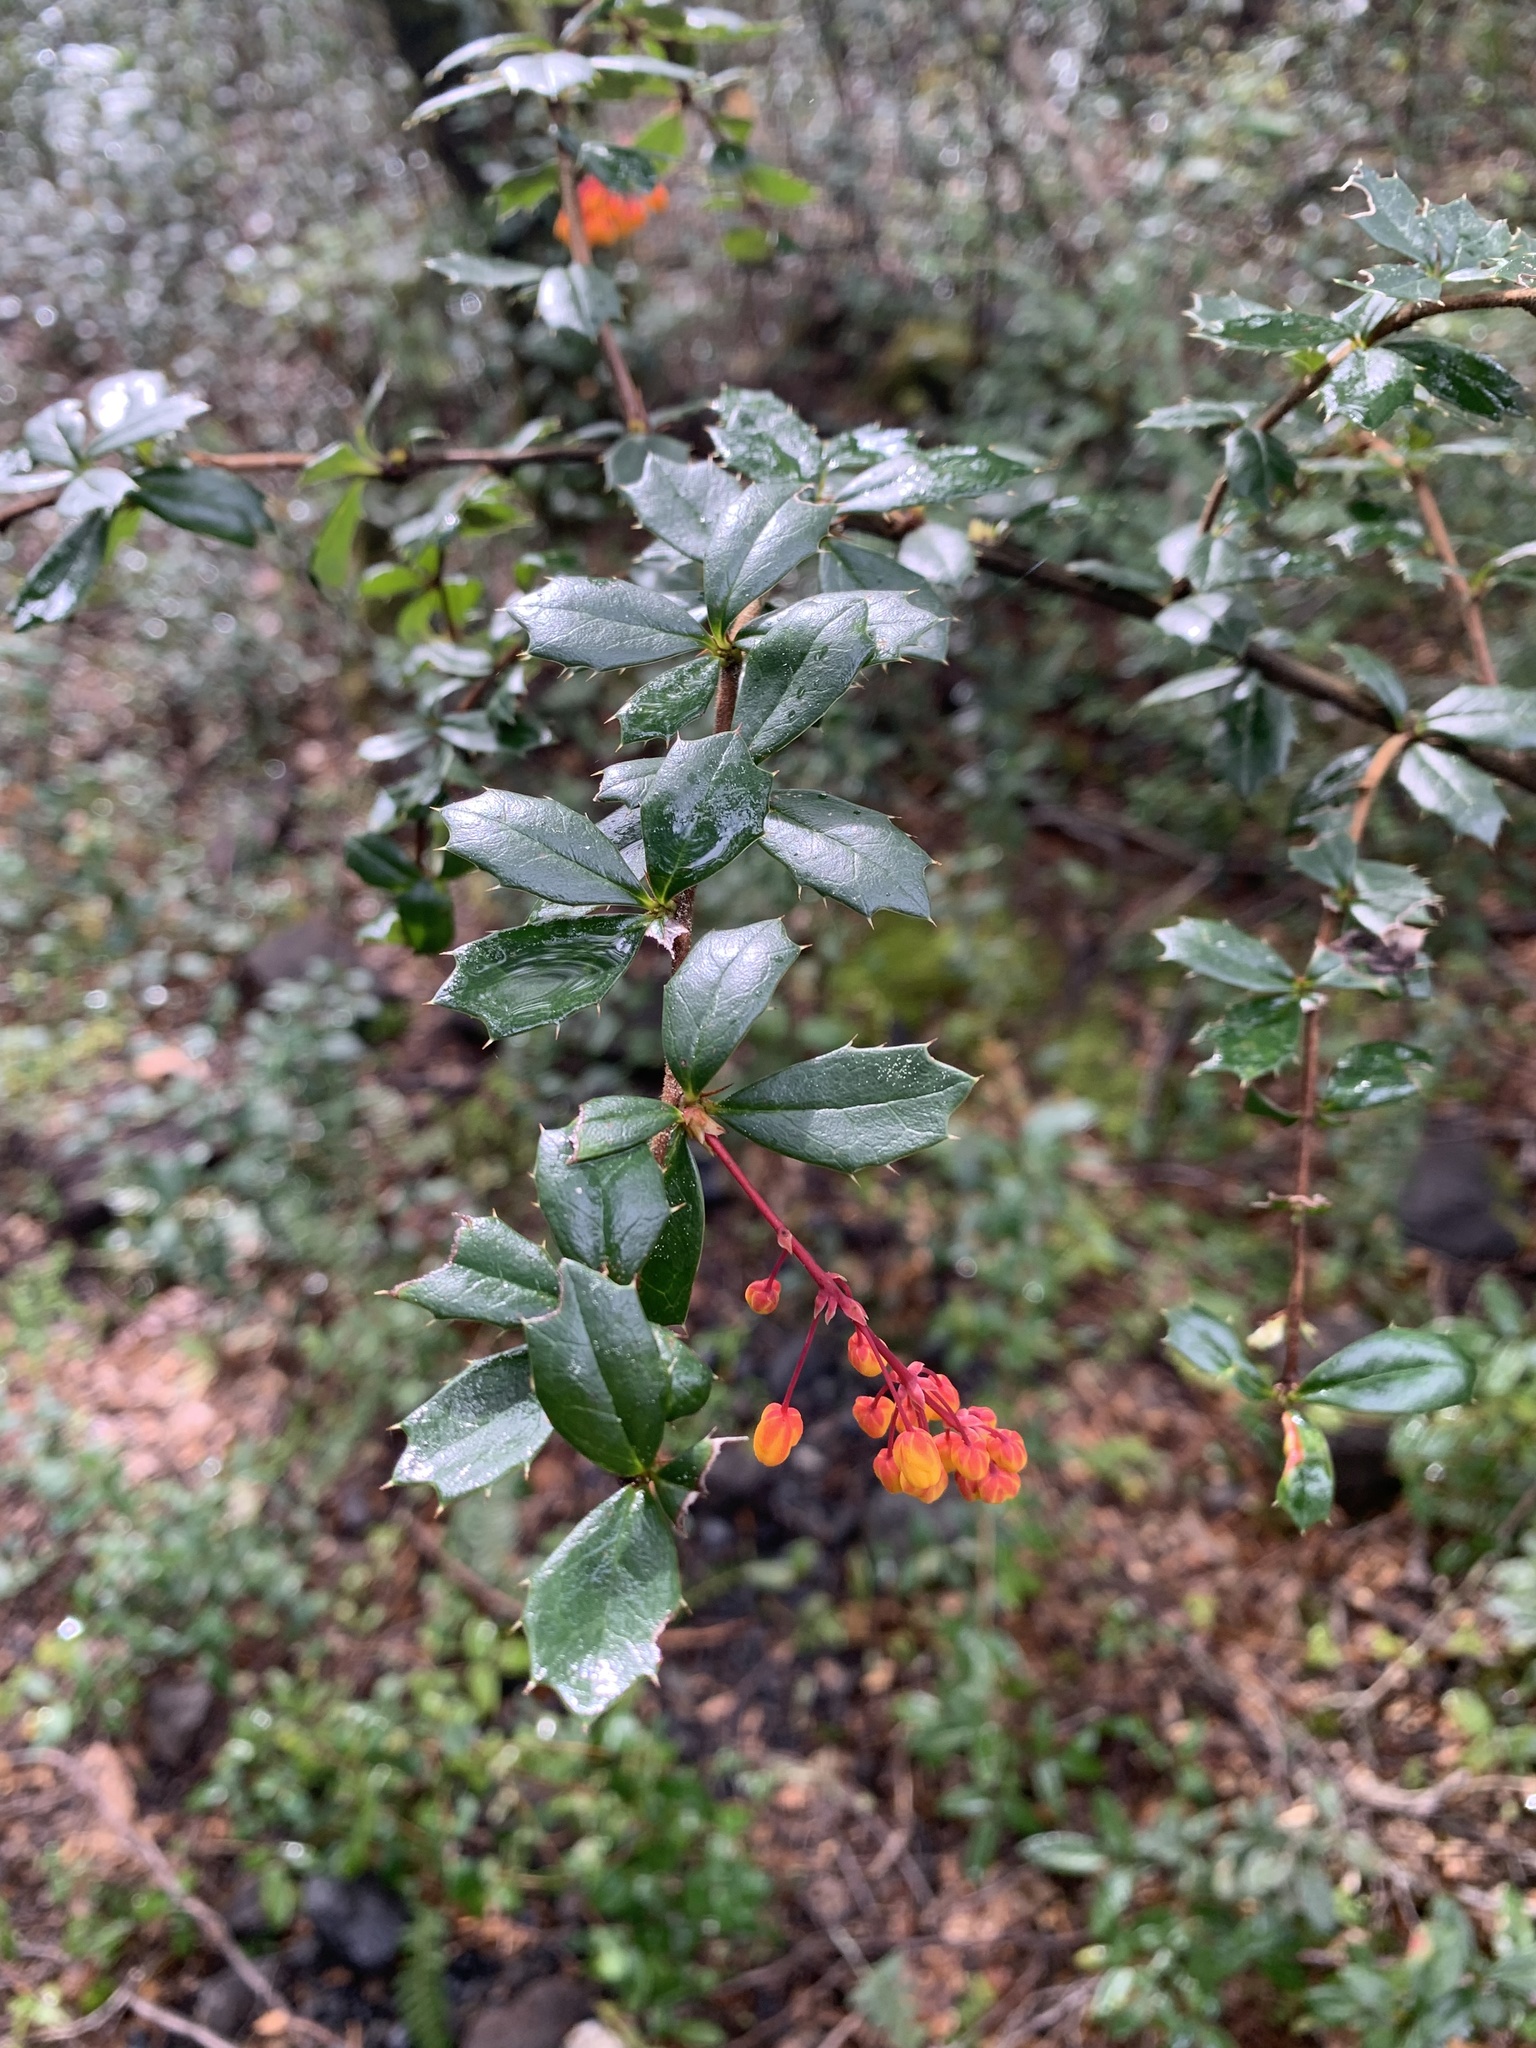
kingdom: Plantae
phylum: Tracheophyta
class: Magnoliopsida
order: Ranunculales
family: Berberidaceae
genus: Berberis
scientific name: Berberis darwinii
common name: Darwin's barberry
